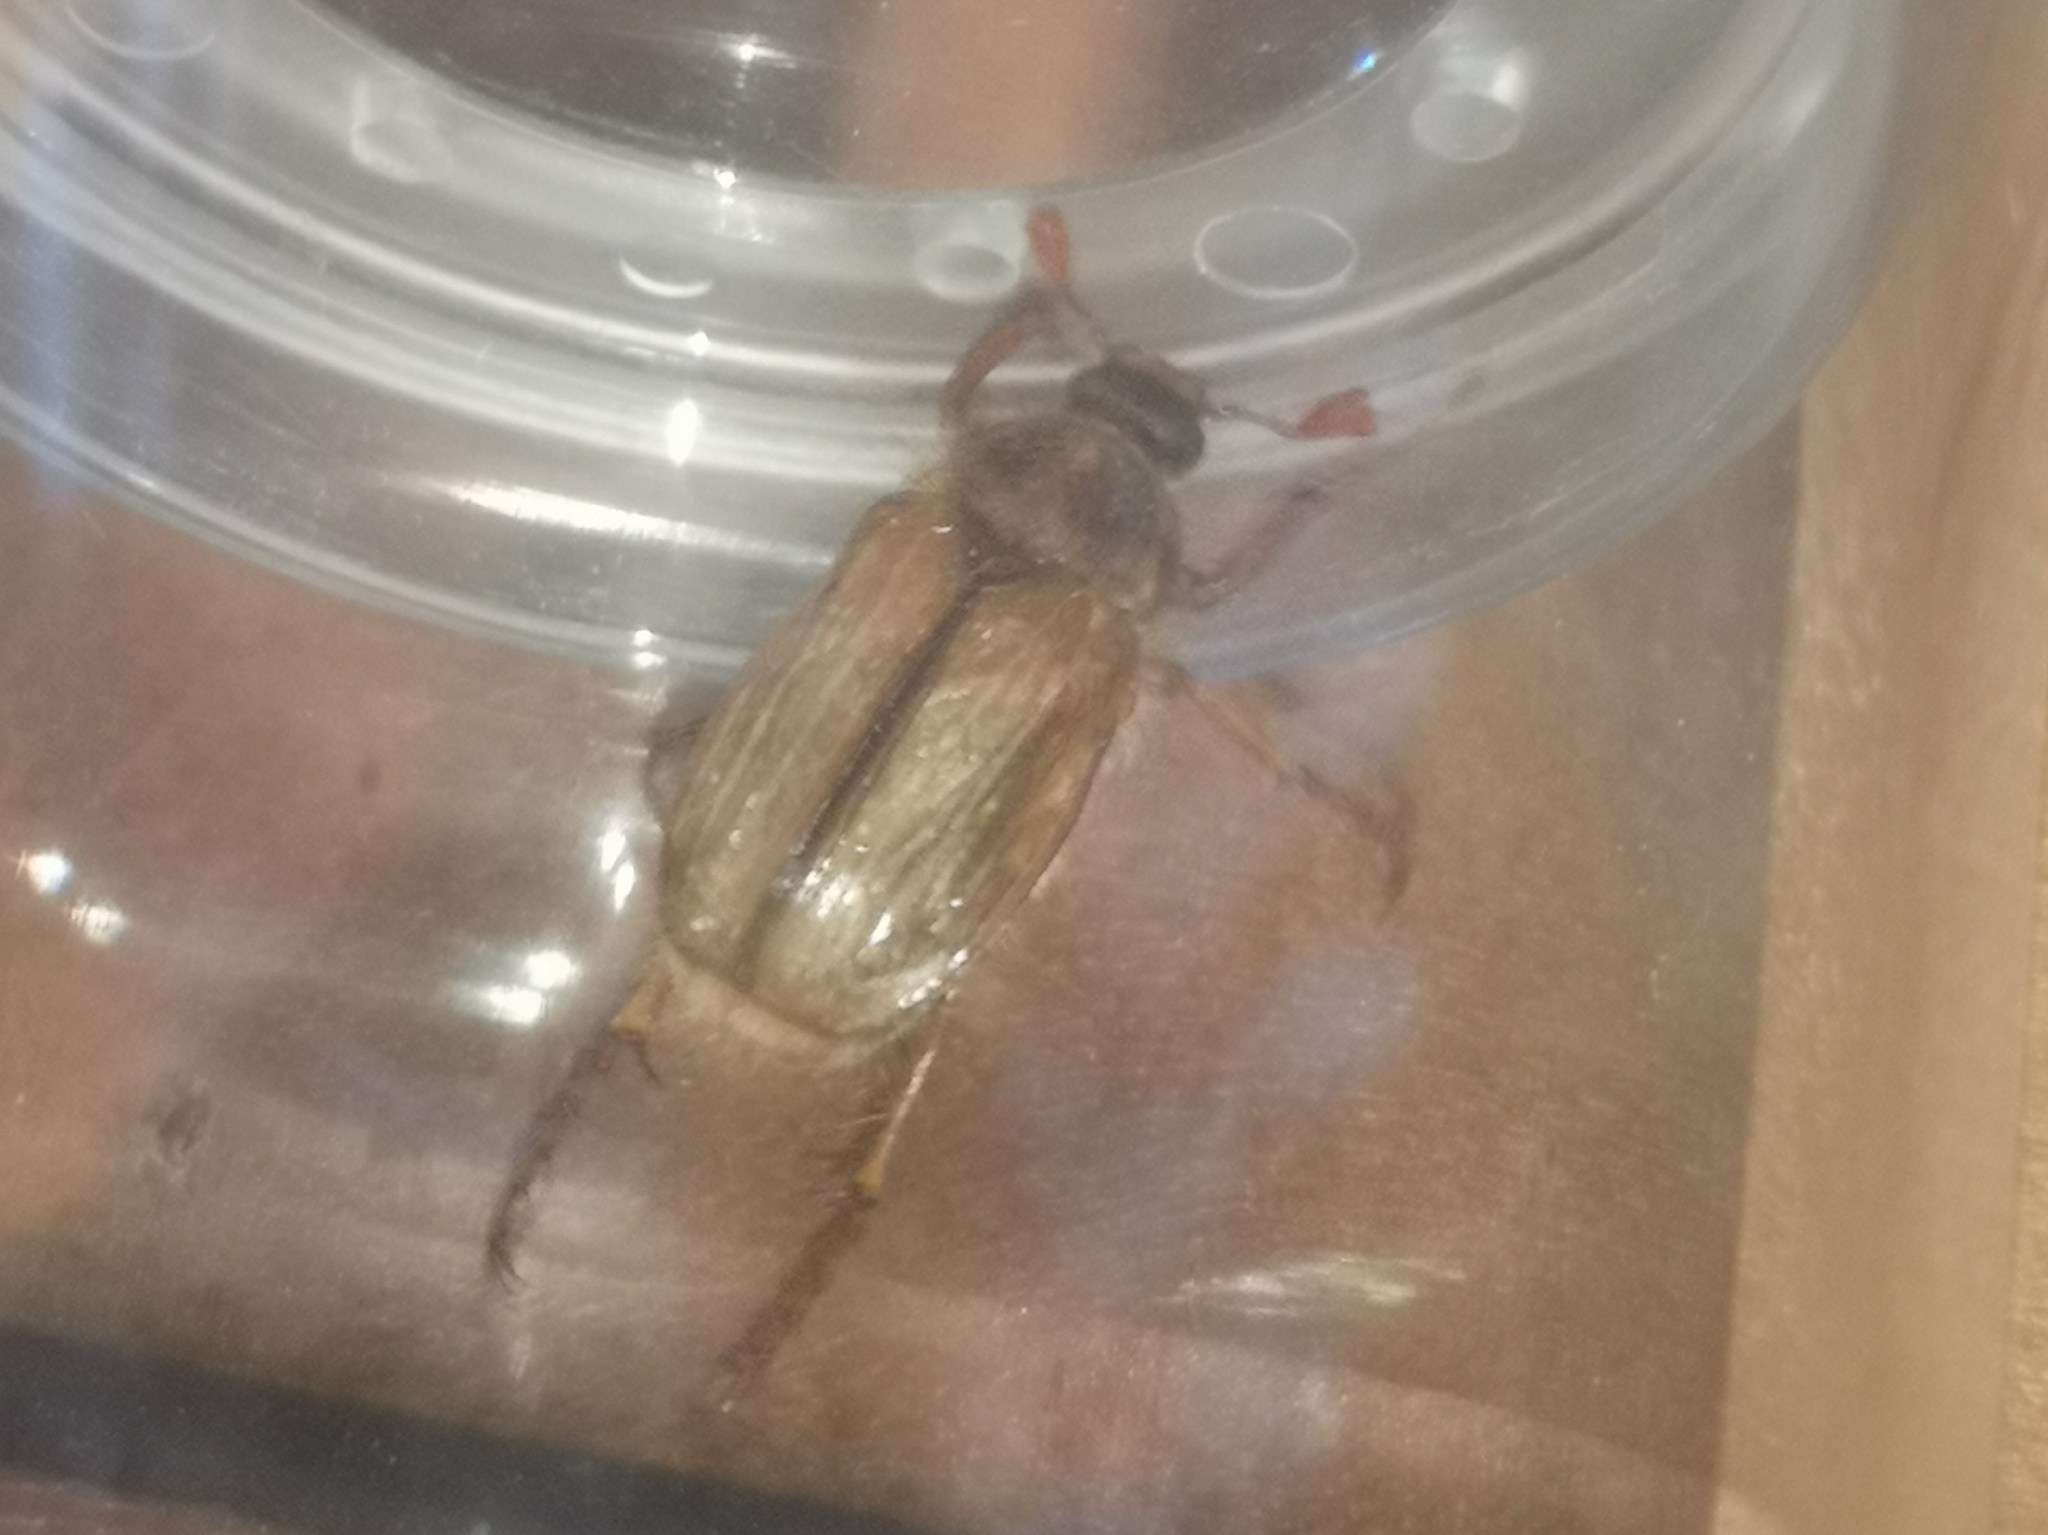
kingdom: Animalia
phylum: Arthropoda
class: Insecta
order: Coleoptera
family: Scarabaeidae
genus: Amphimallon
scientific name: Amphimallon solstitiale
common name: Summer chafer
